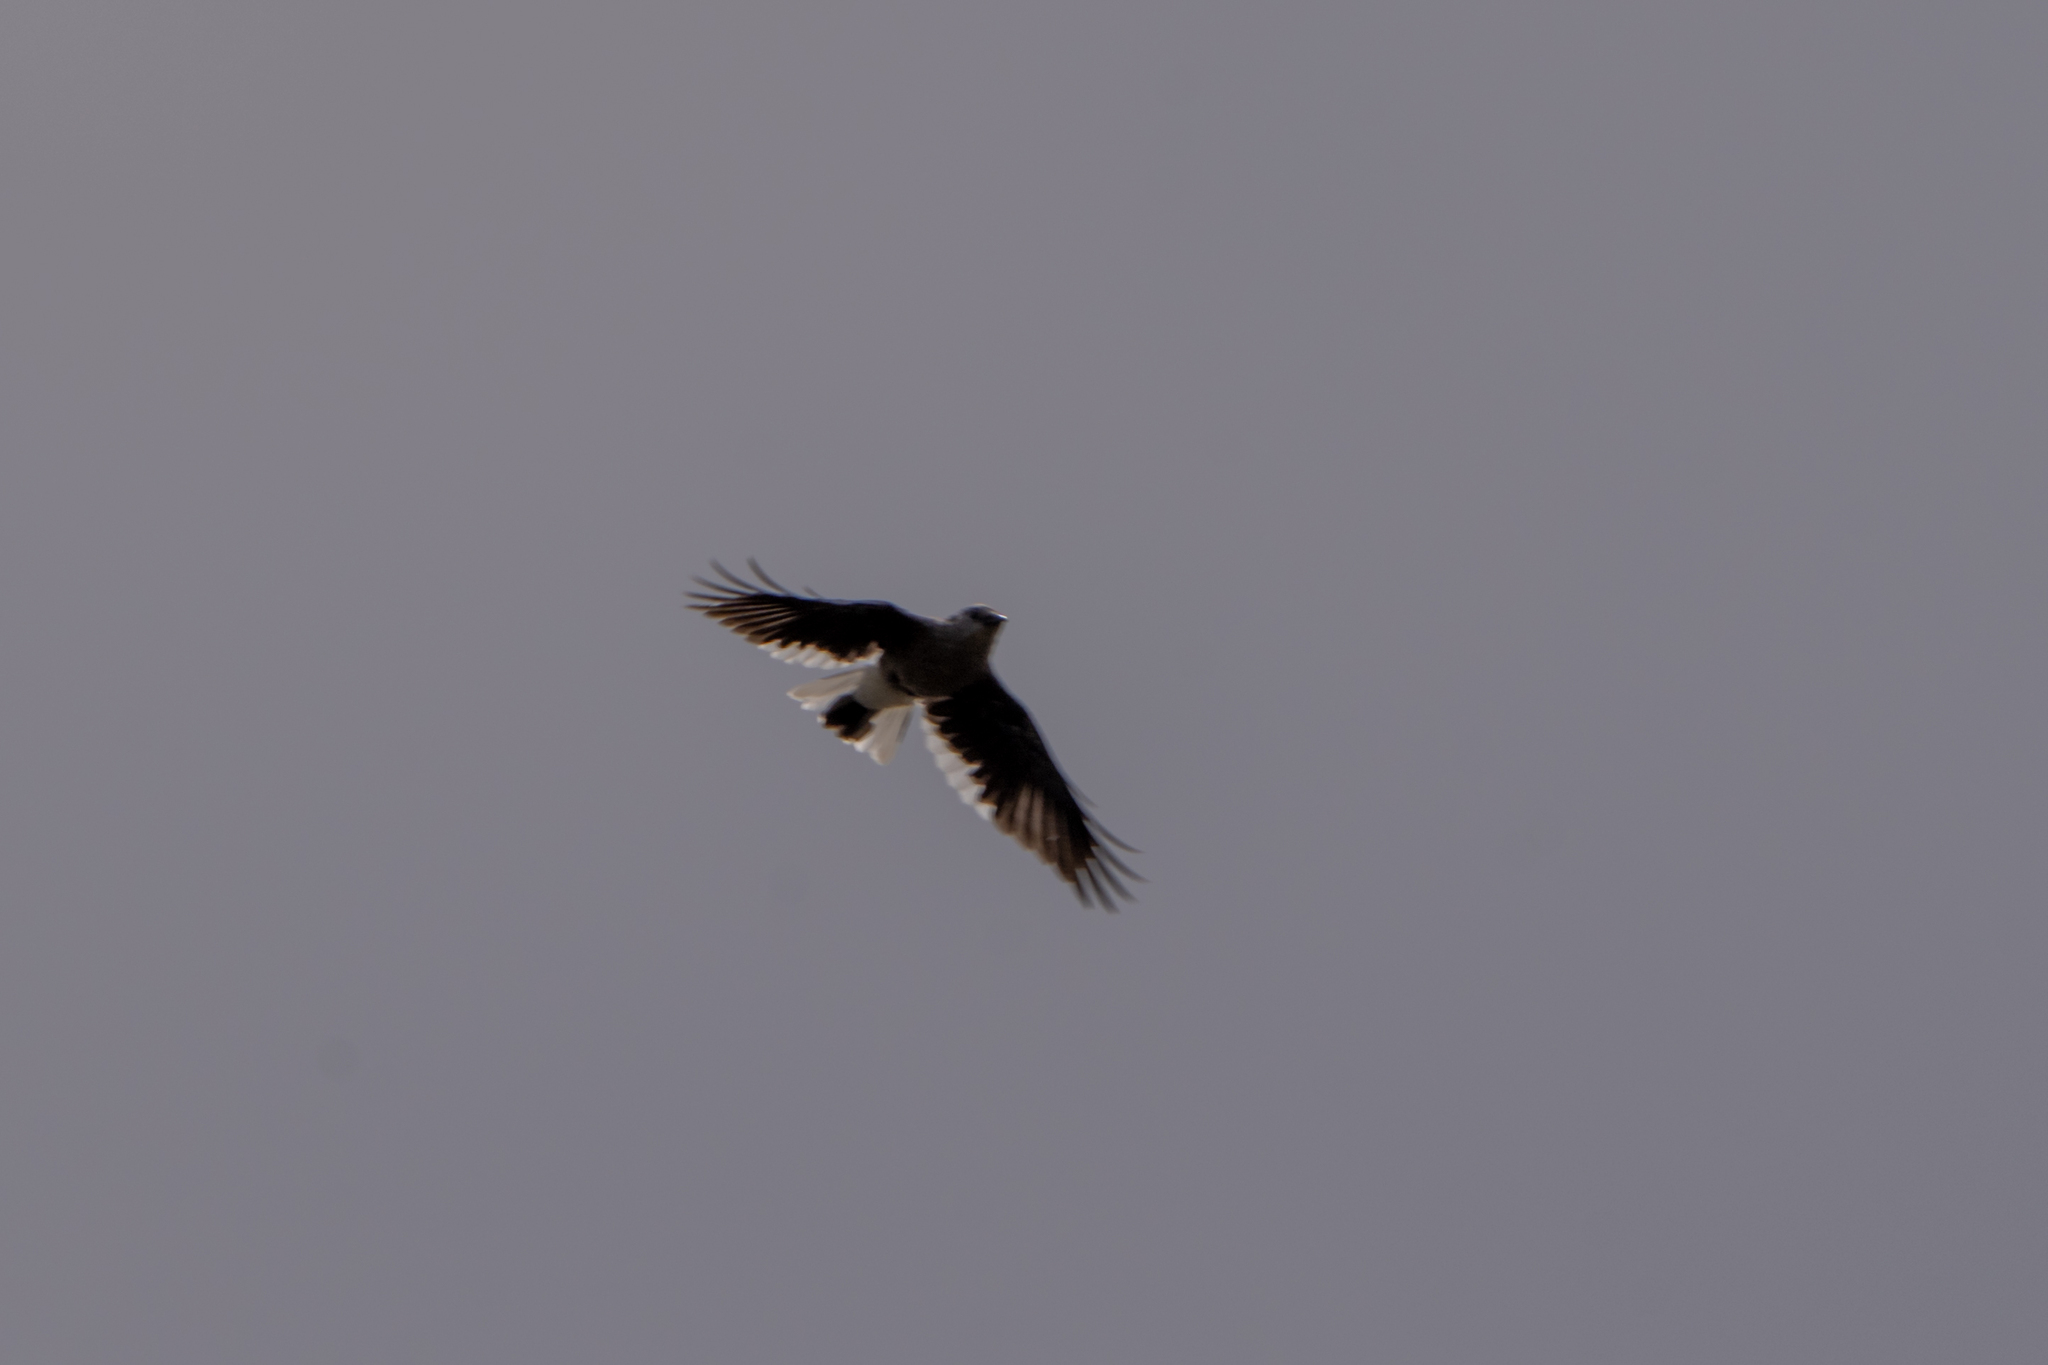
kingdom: Animalia
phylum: Chordata
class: Aves
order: Passeriformes
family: Corvidae
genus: Nucifraga
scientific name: Nucifraga columbiana
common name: Clark's nutcracker
